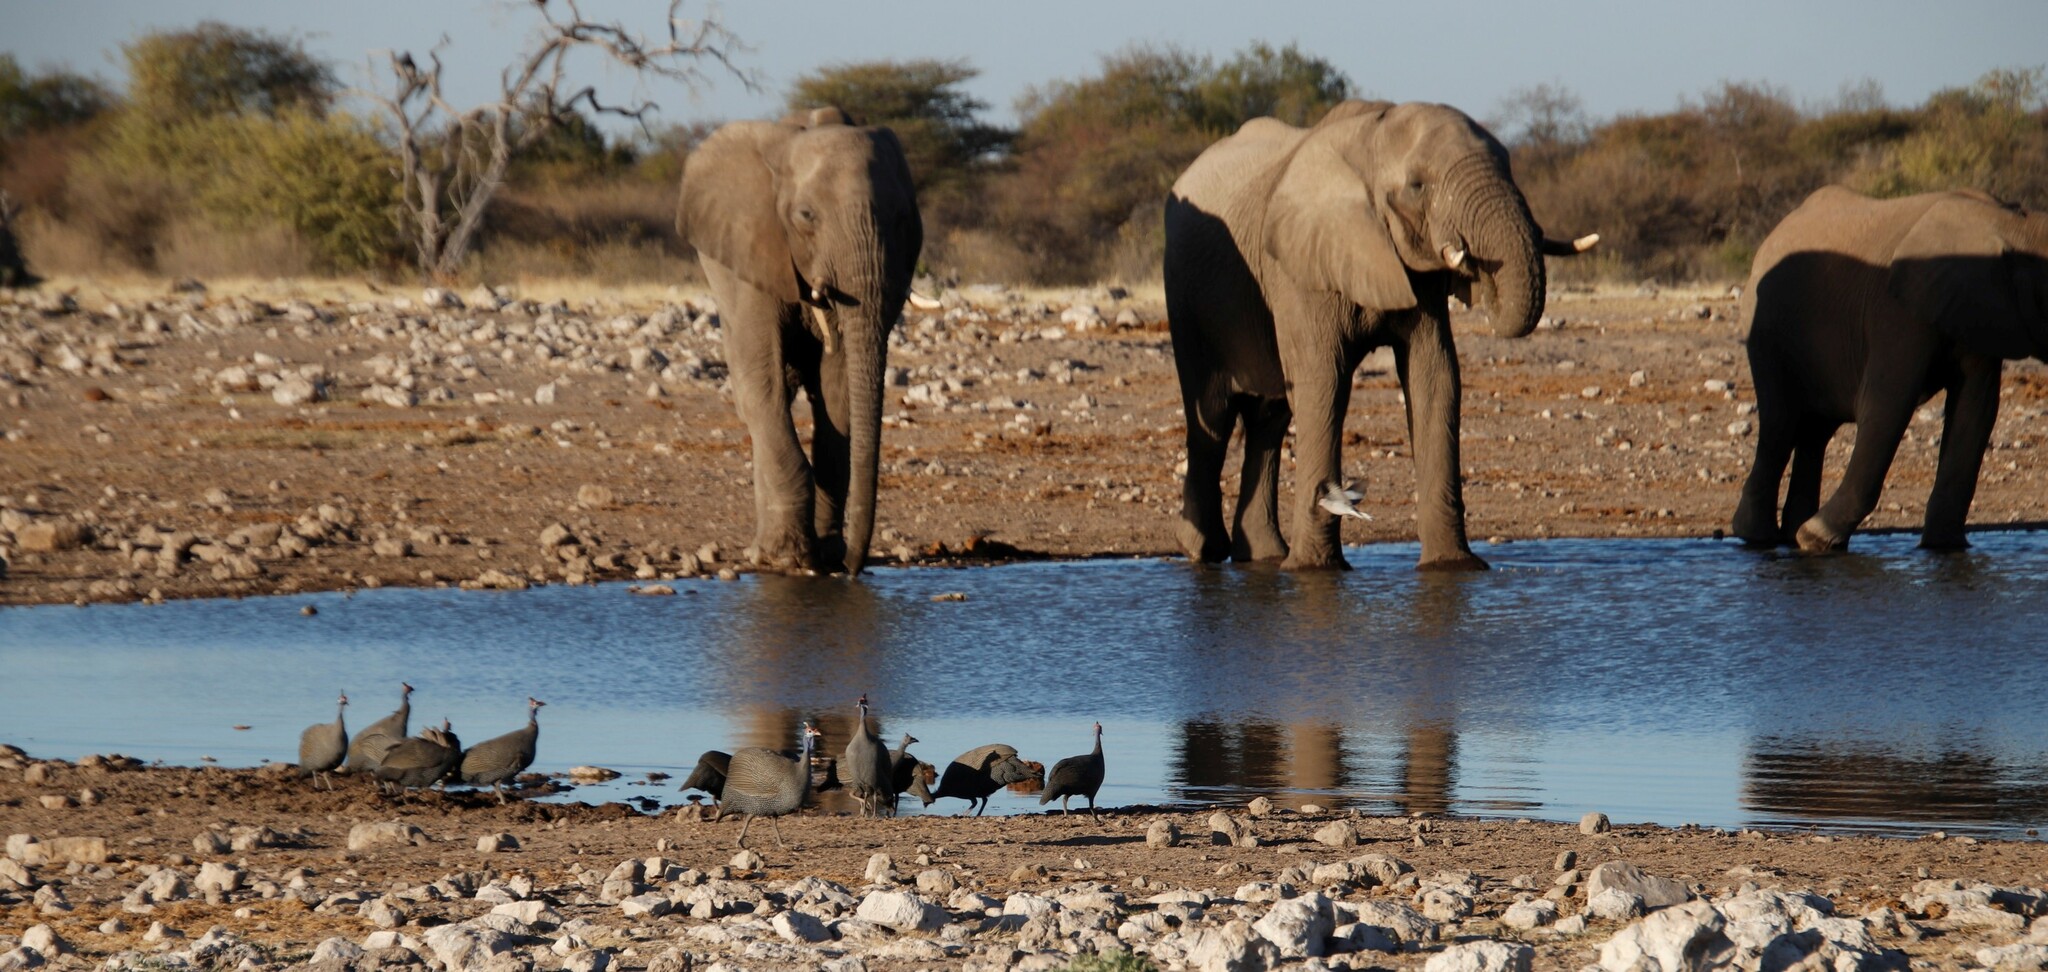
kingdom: Animalia
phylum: Chordata
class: Mammalia
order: Proboscidea
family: Elephantidae
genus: Loxodonta
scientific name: Loxodonta africana
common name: African elephant
